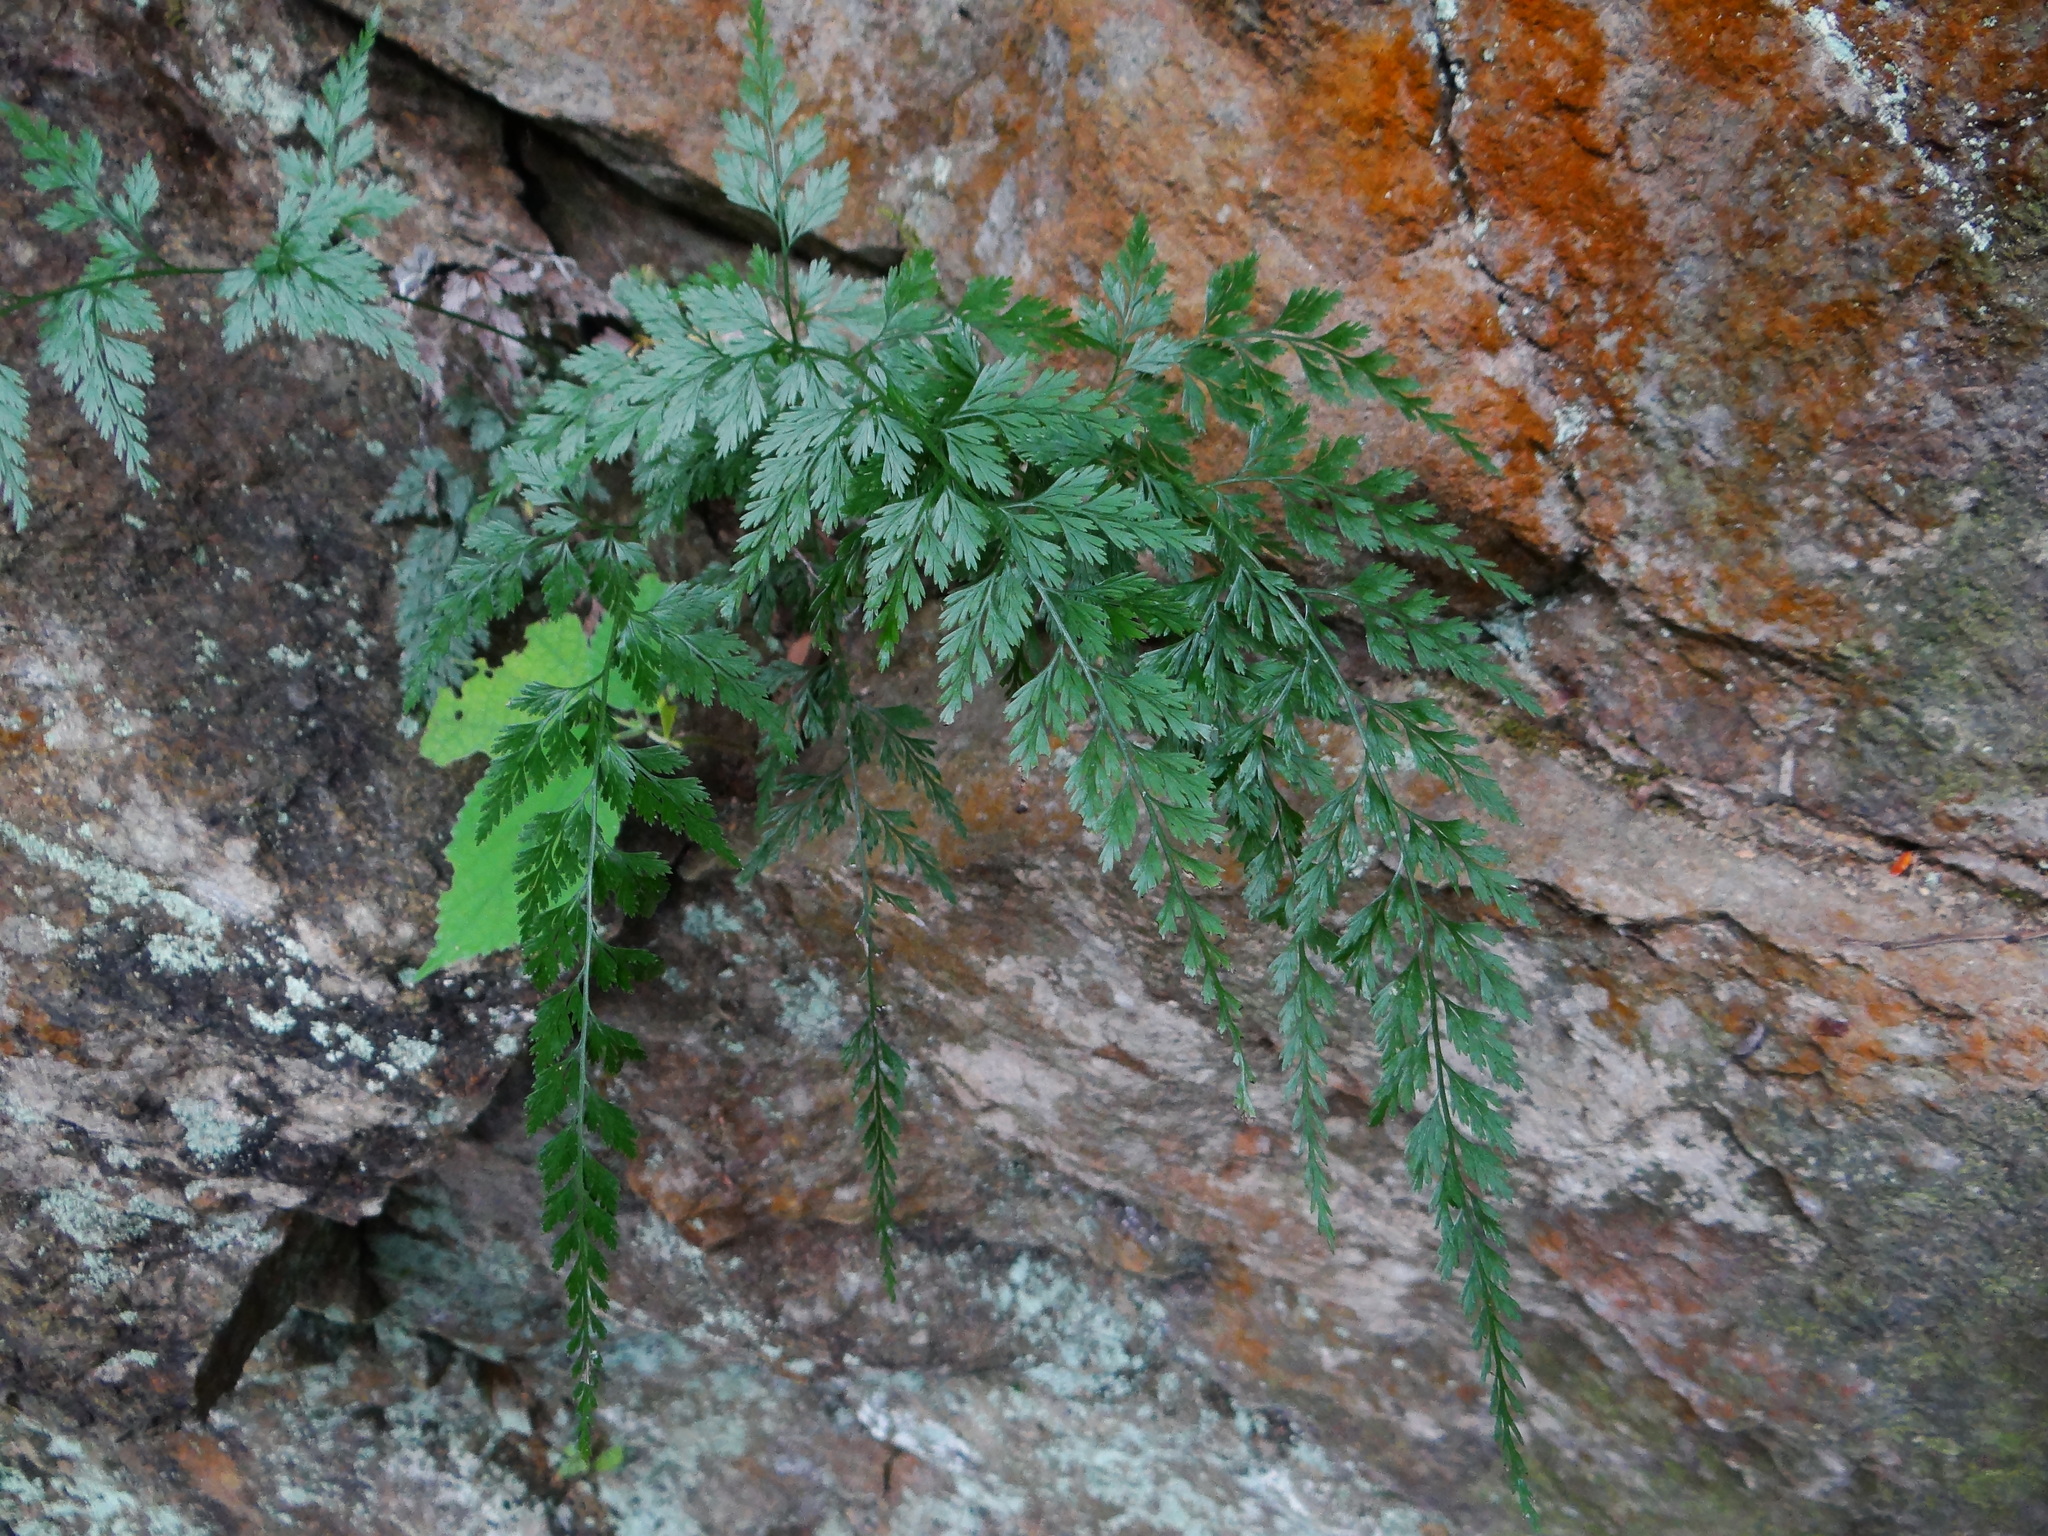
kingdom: Plantae
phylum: Tracheophyta
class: Polypodiopsida
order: Polypodiales
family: Pteridaceae
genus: Onychium
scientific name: Onychium japonicum
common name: Carrot fern
